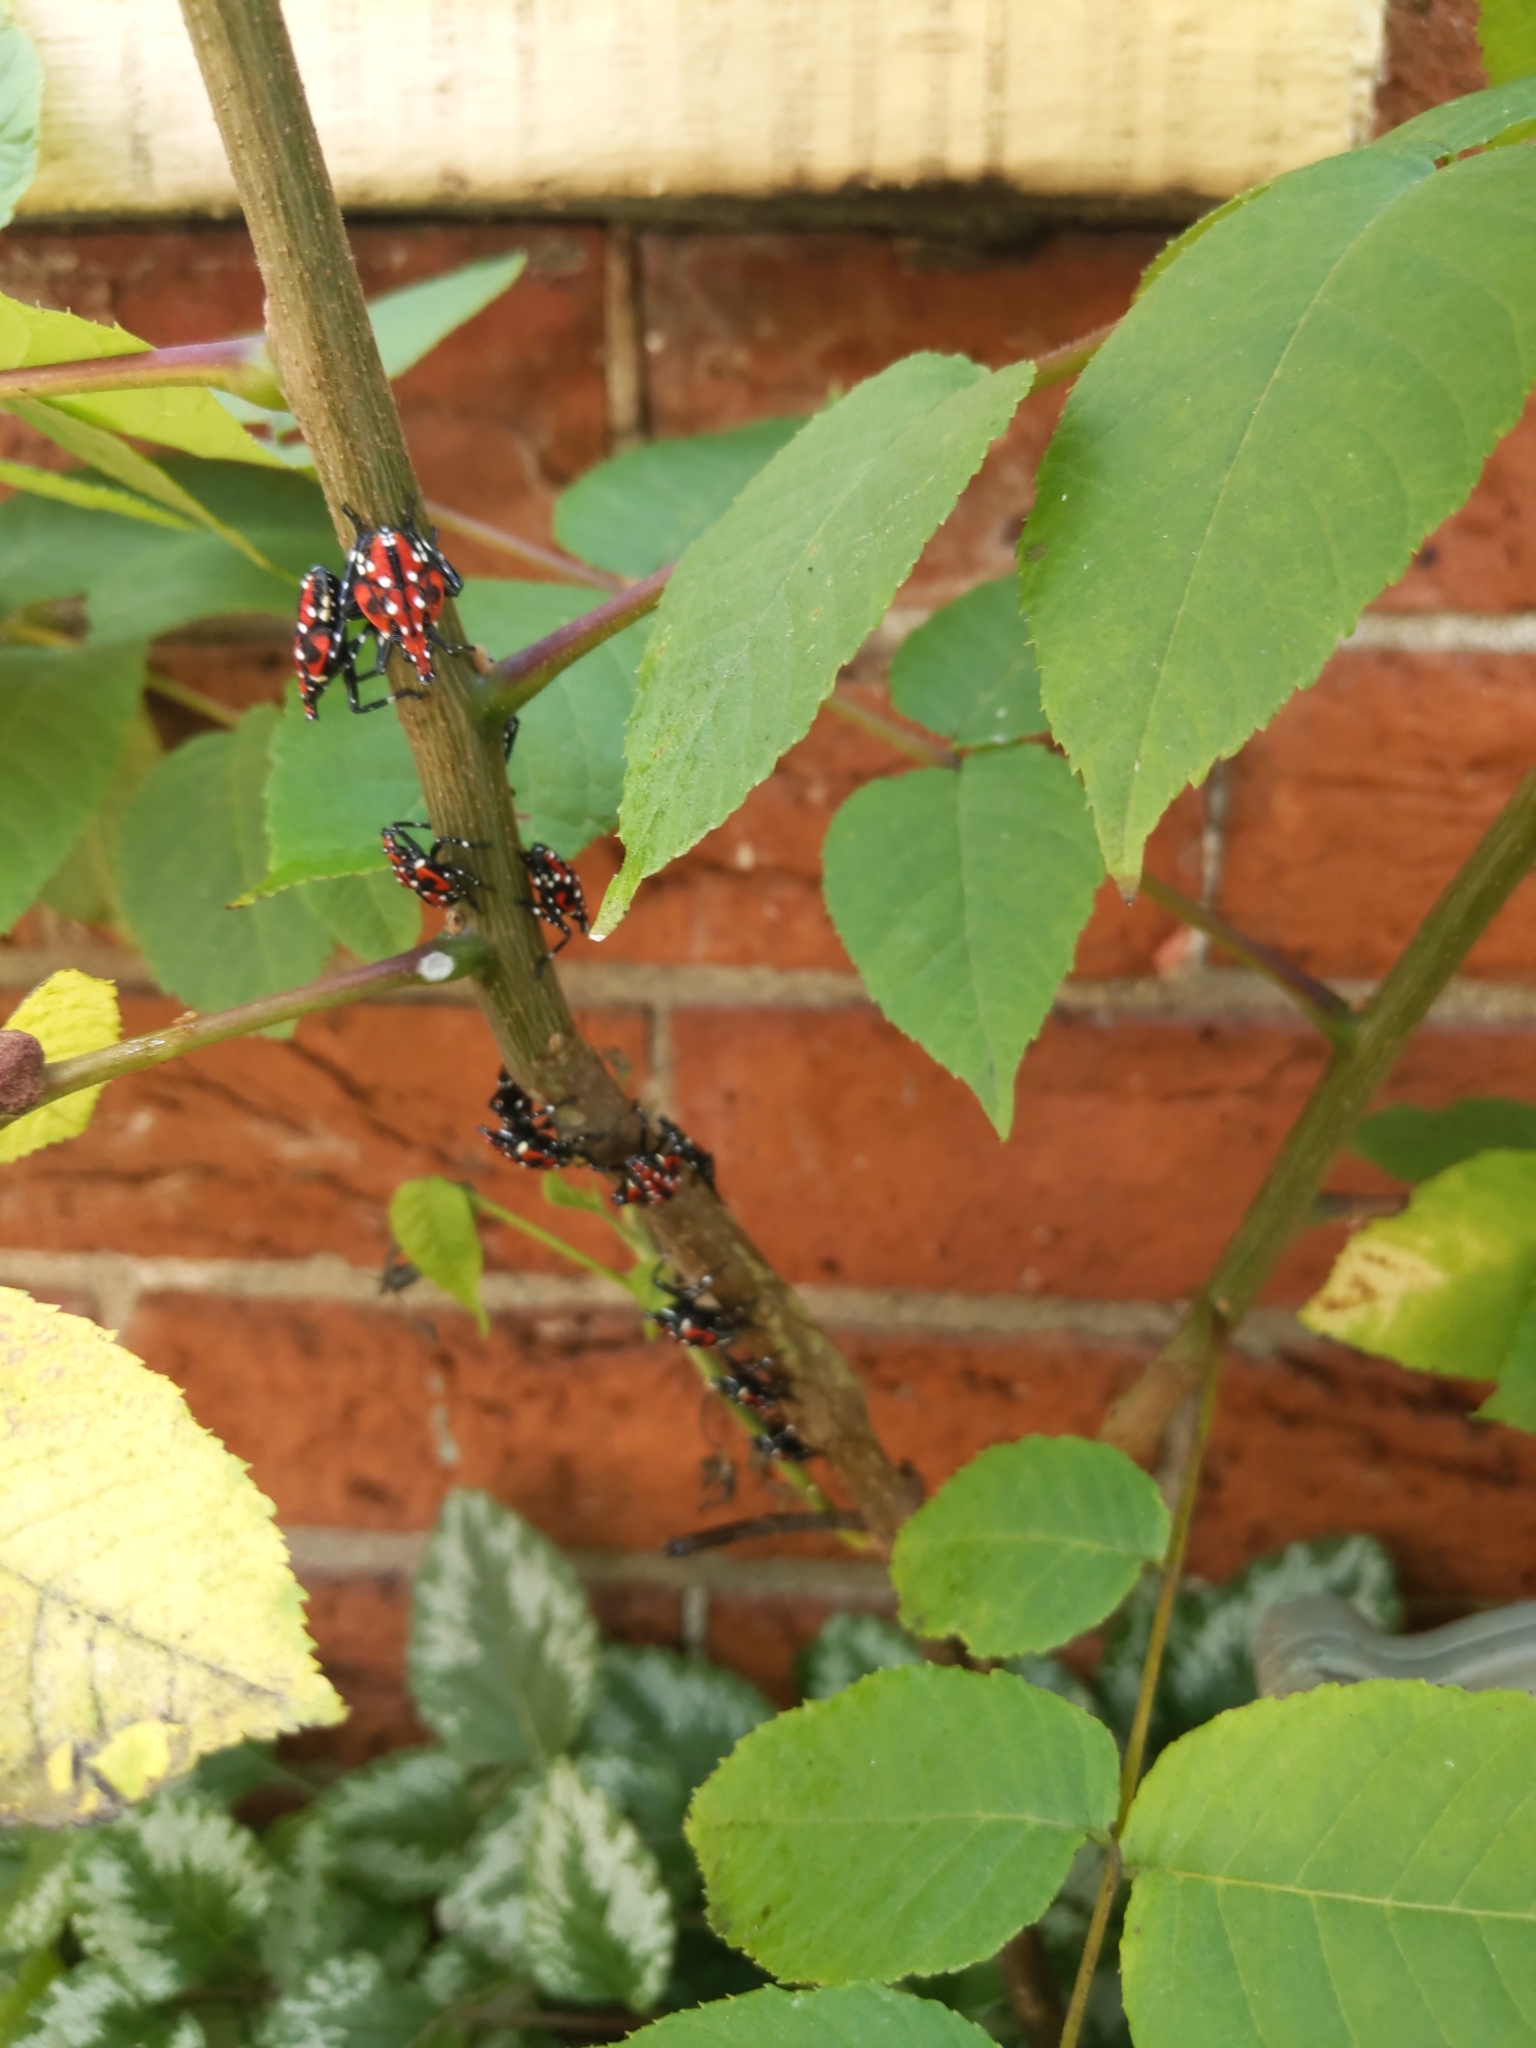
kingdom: Animalia
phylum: Arthropoda
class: Insecta
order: Hemiptera
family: Fulgoridae
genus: Lycorma
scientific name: Lycorma delicatula
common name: Spotted lanternfly
